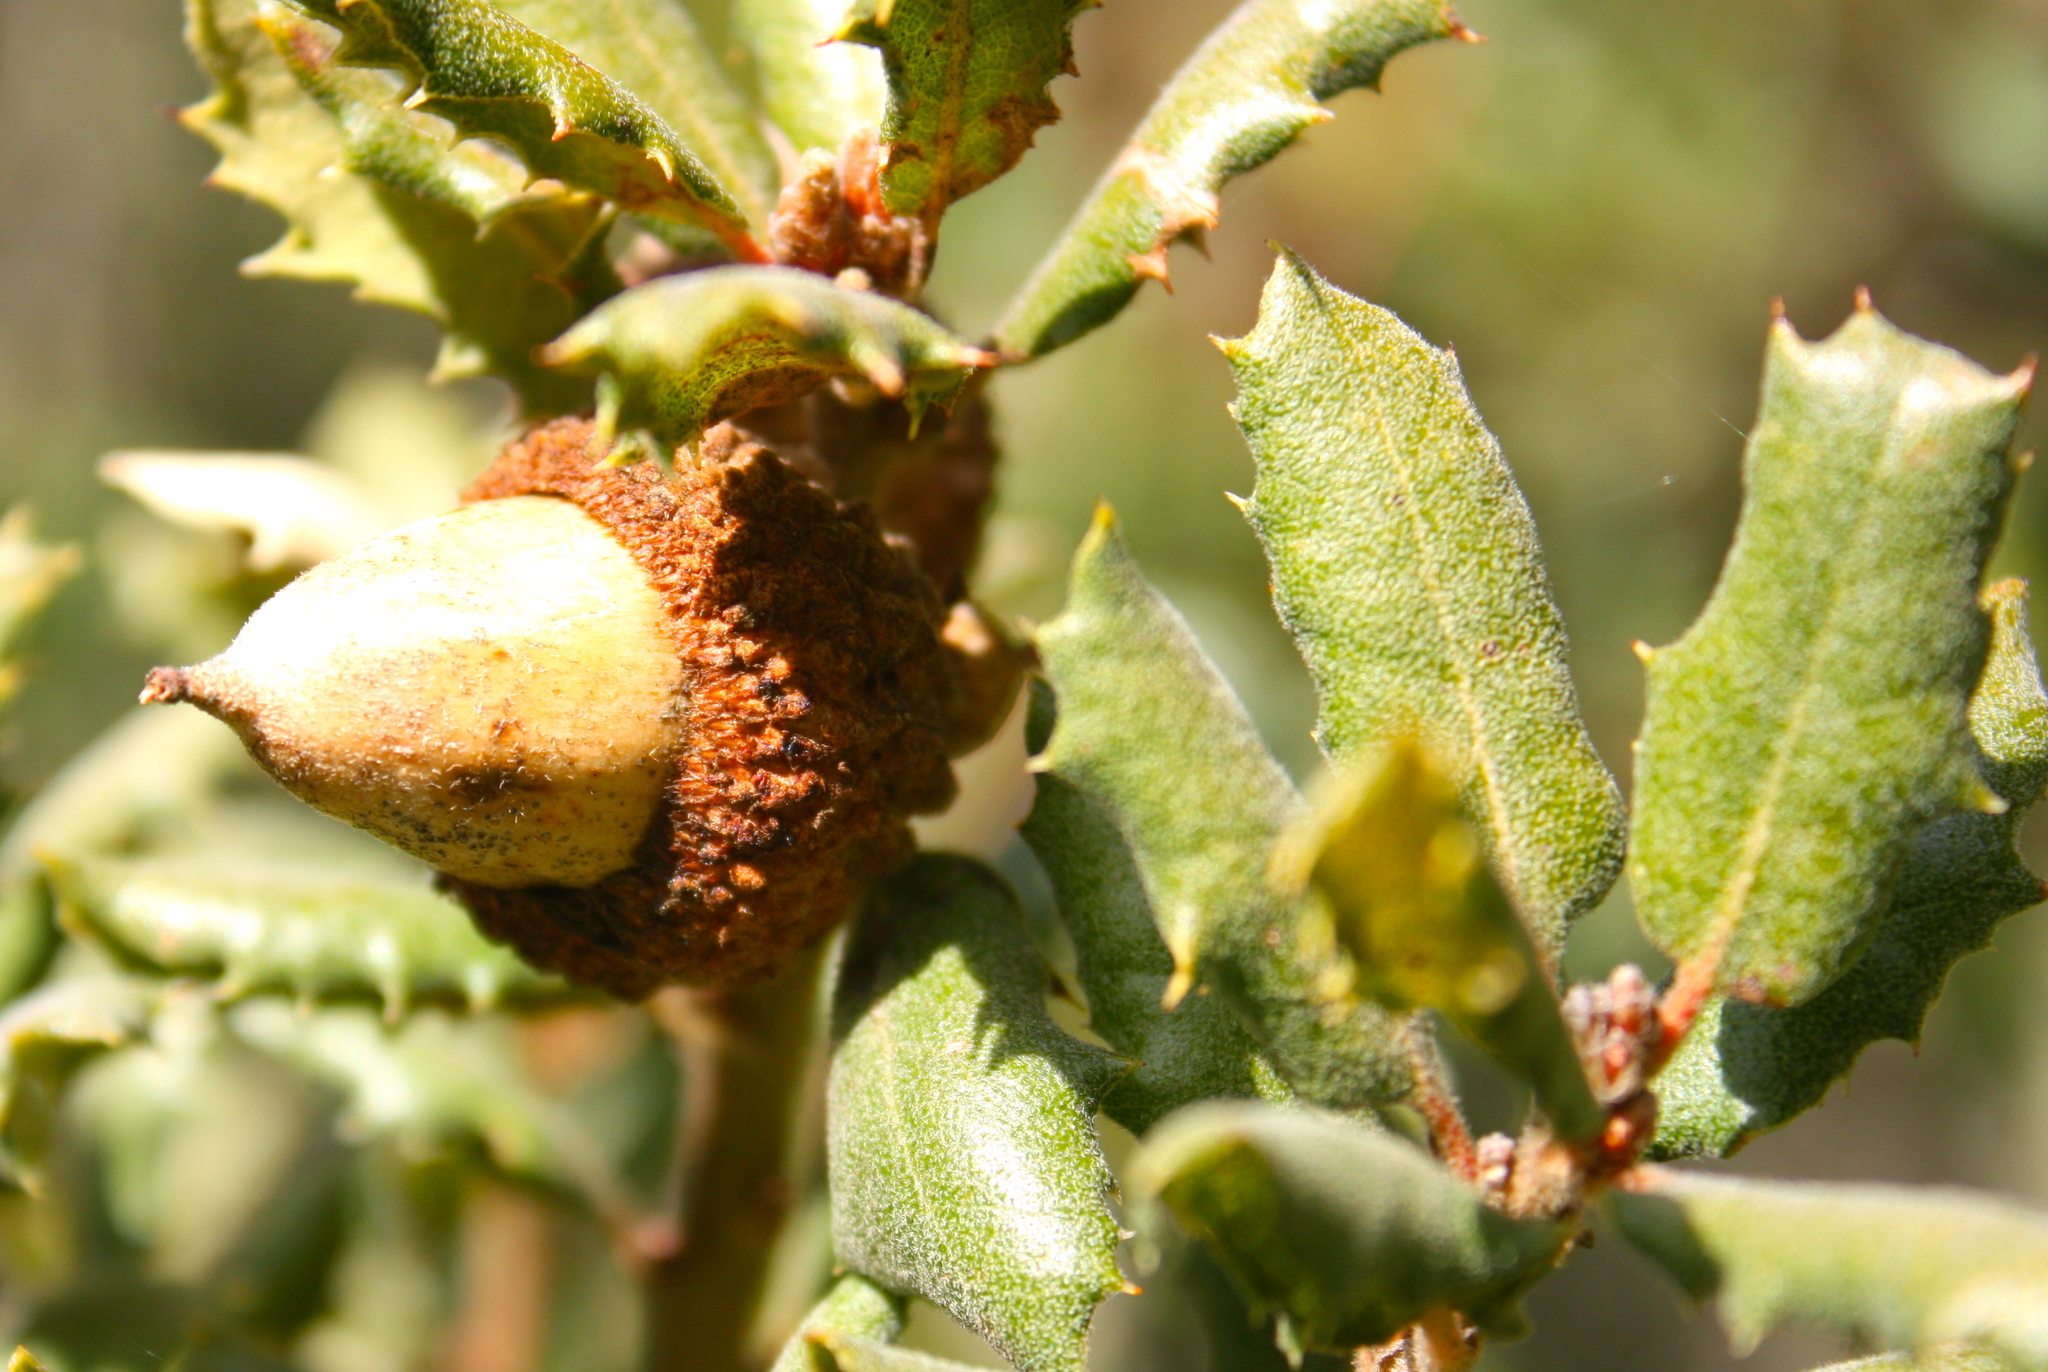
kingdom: Plantae
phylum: Tracheophyta
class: Magnoliopsida
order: Fagales
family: Fagaceae
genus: Quercus
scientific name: Quercus durata
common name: Leather oak
